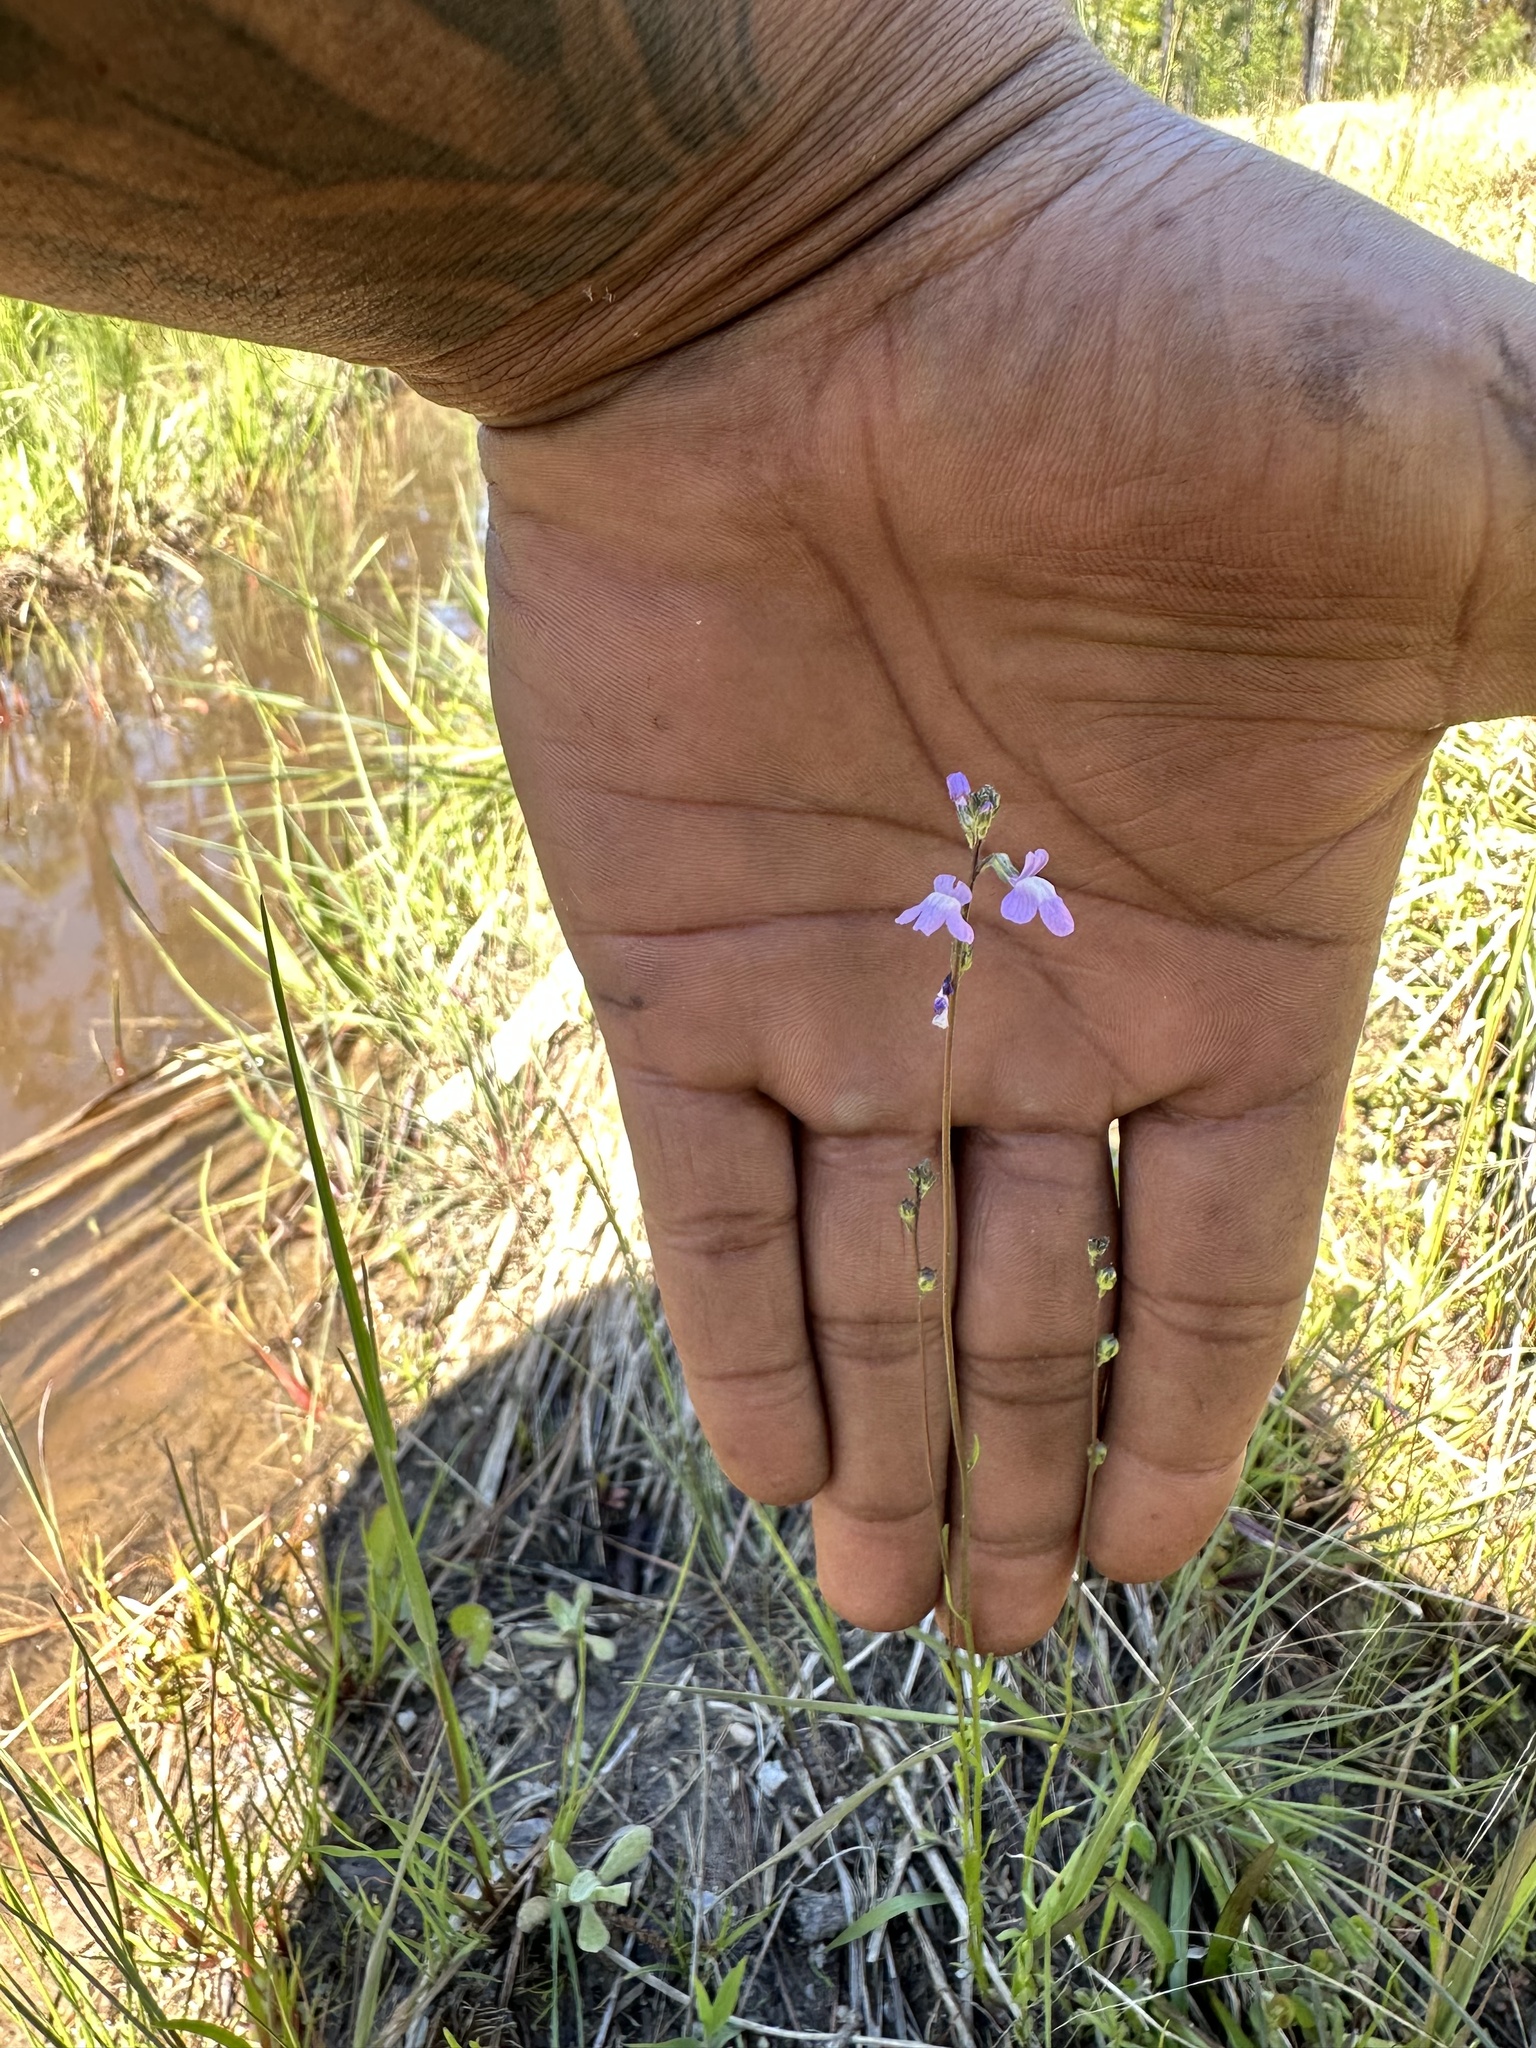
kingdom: Plantae
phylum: Tracheophyta
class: Magnoliopsida
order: Lamiales
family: Plantaginaceae
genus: Nuttallanthus
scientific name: Nuttallanthus canadensis
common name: Blue toadflax
